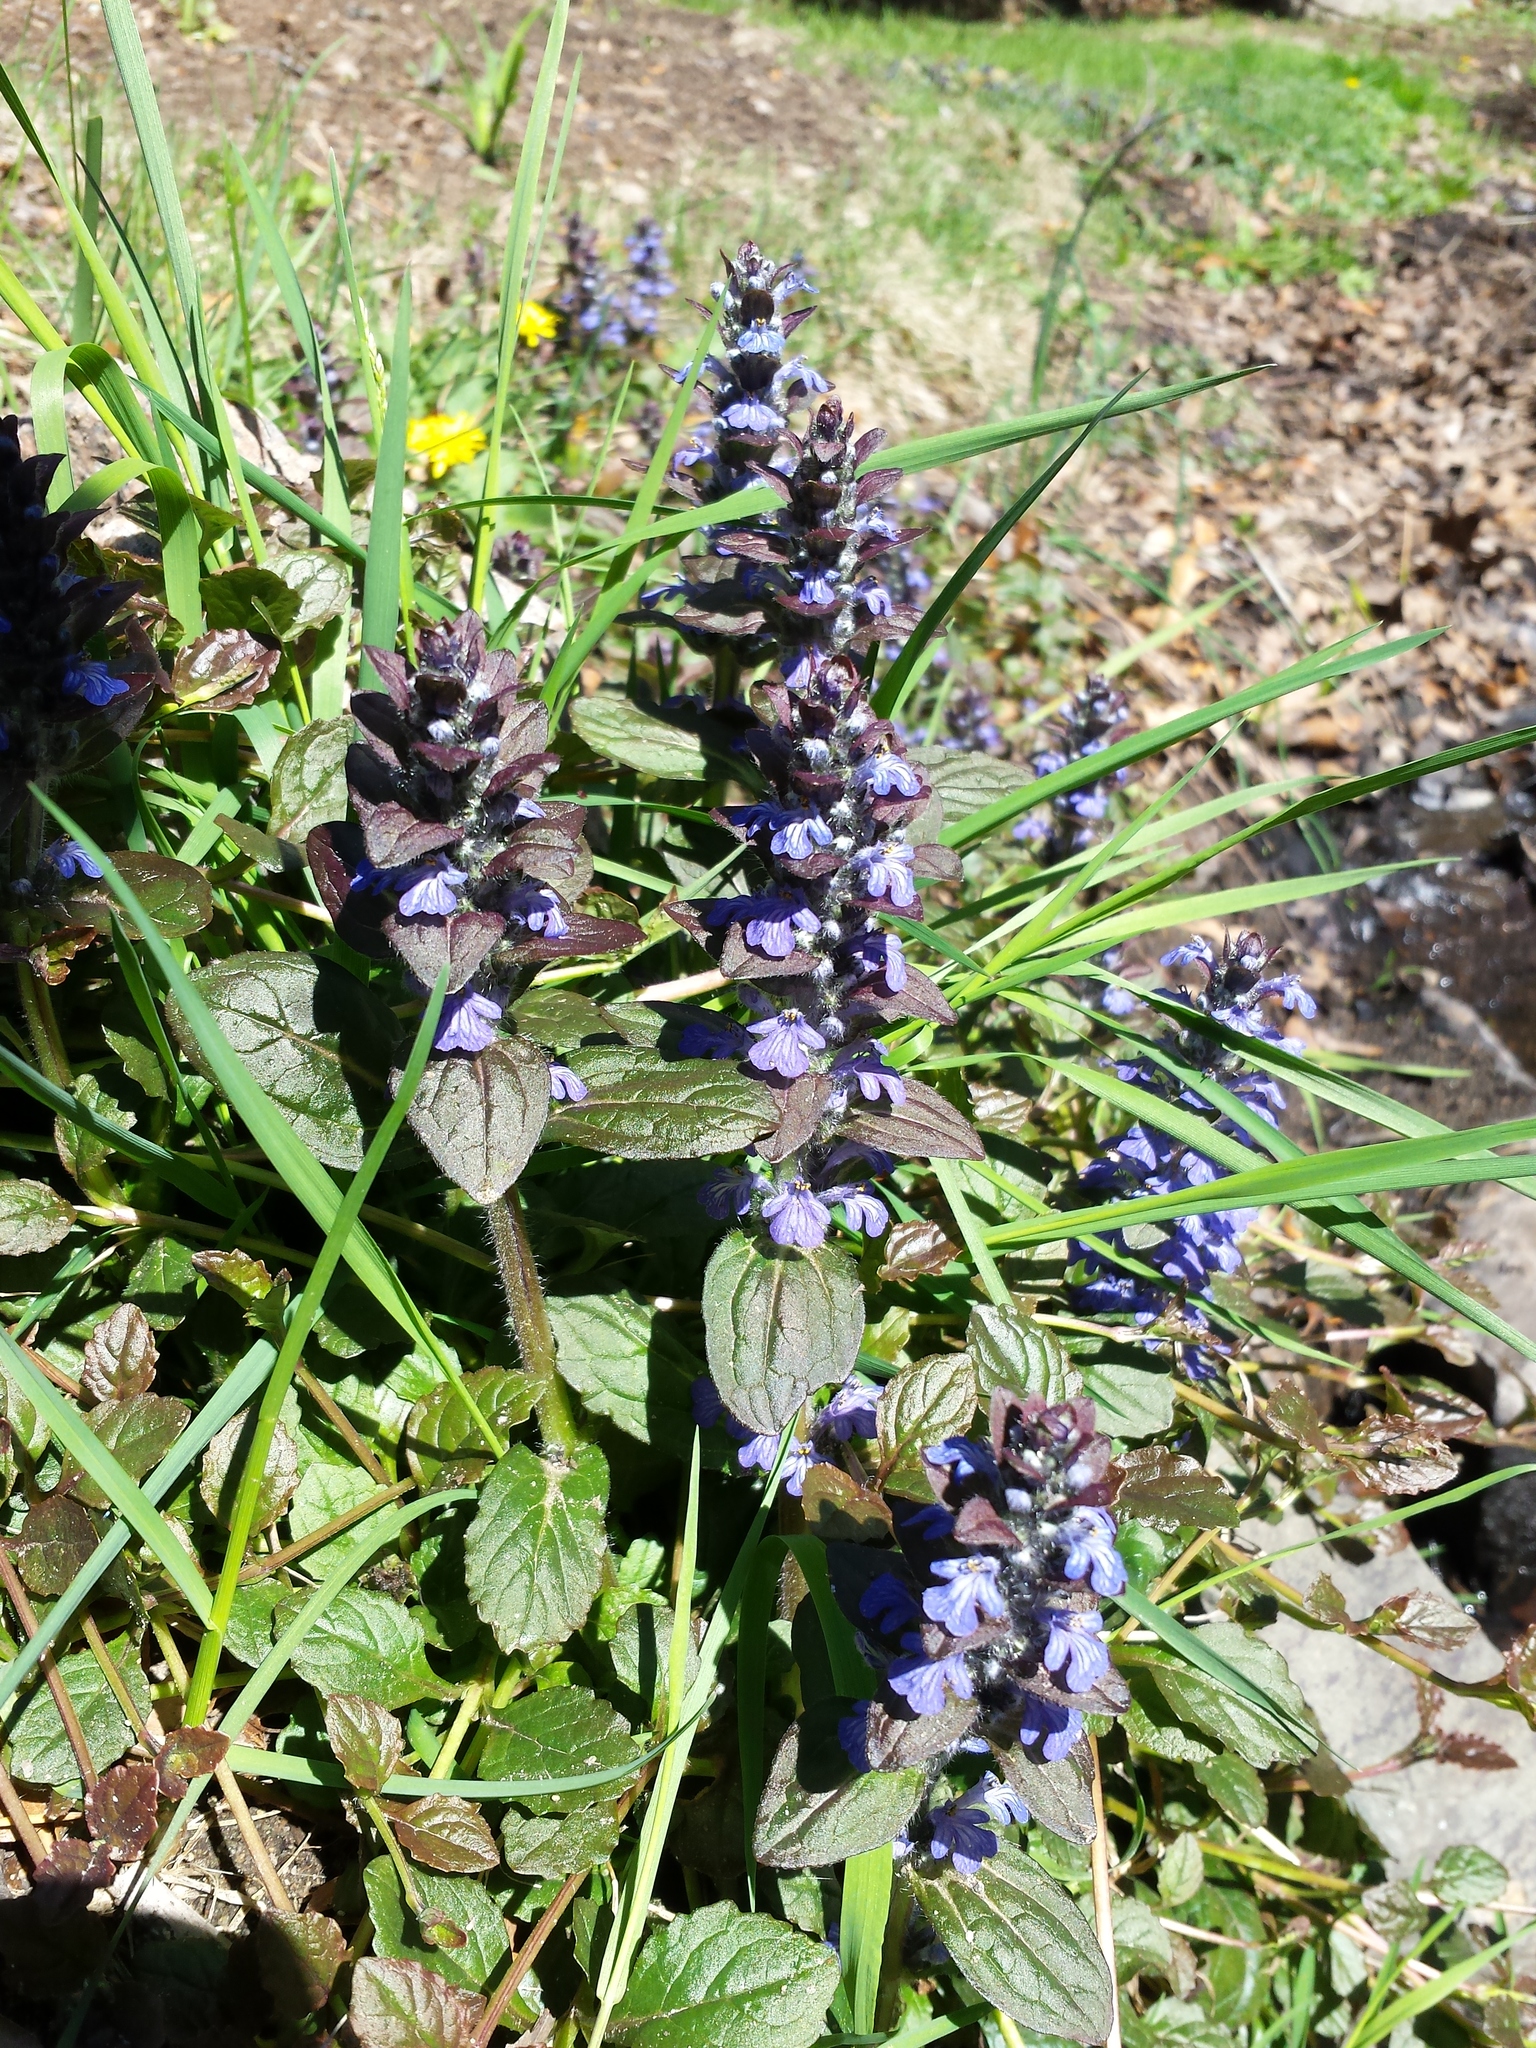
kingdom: Plantae
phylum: Tracheophyta
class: Magnoliopsida
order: Lamiales
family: Lamiaceae
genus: Ajuga
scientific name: Ajuga reptans
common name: Bugle
